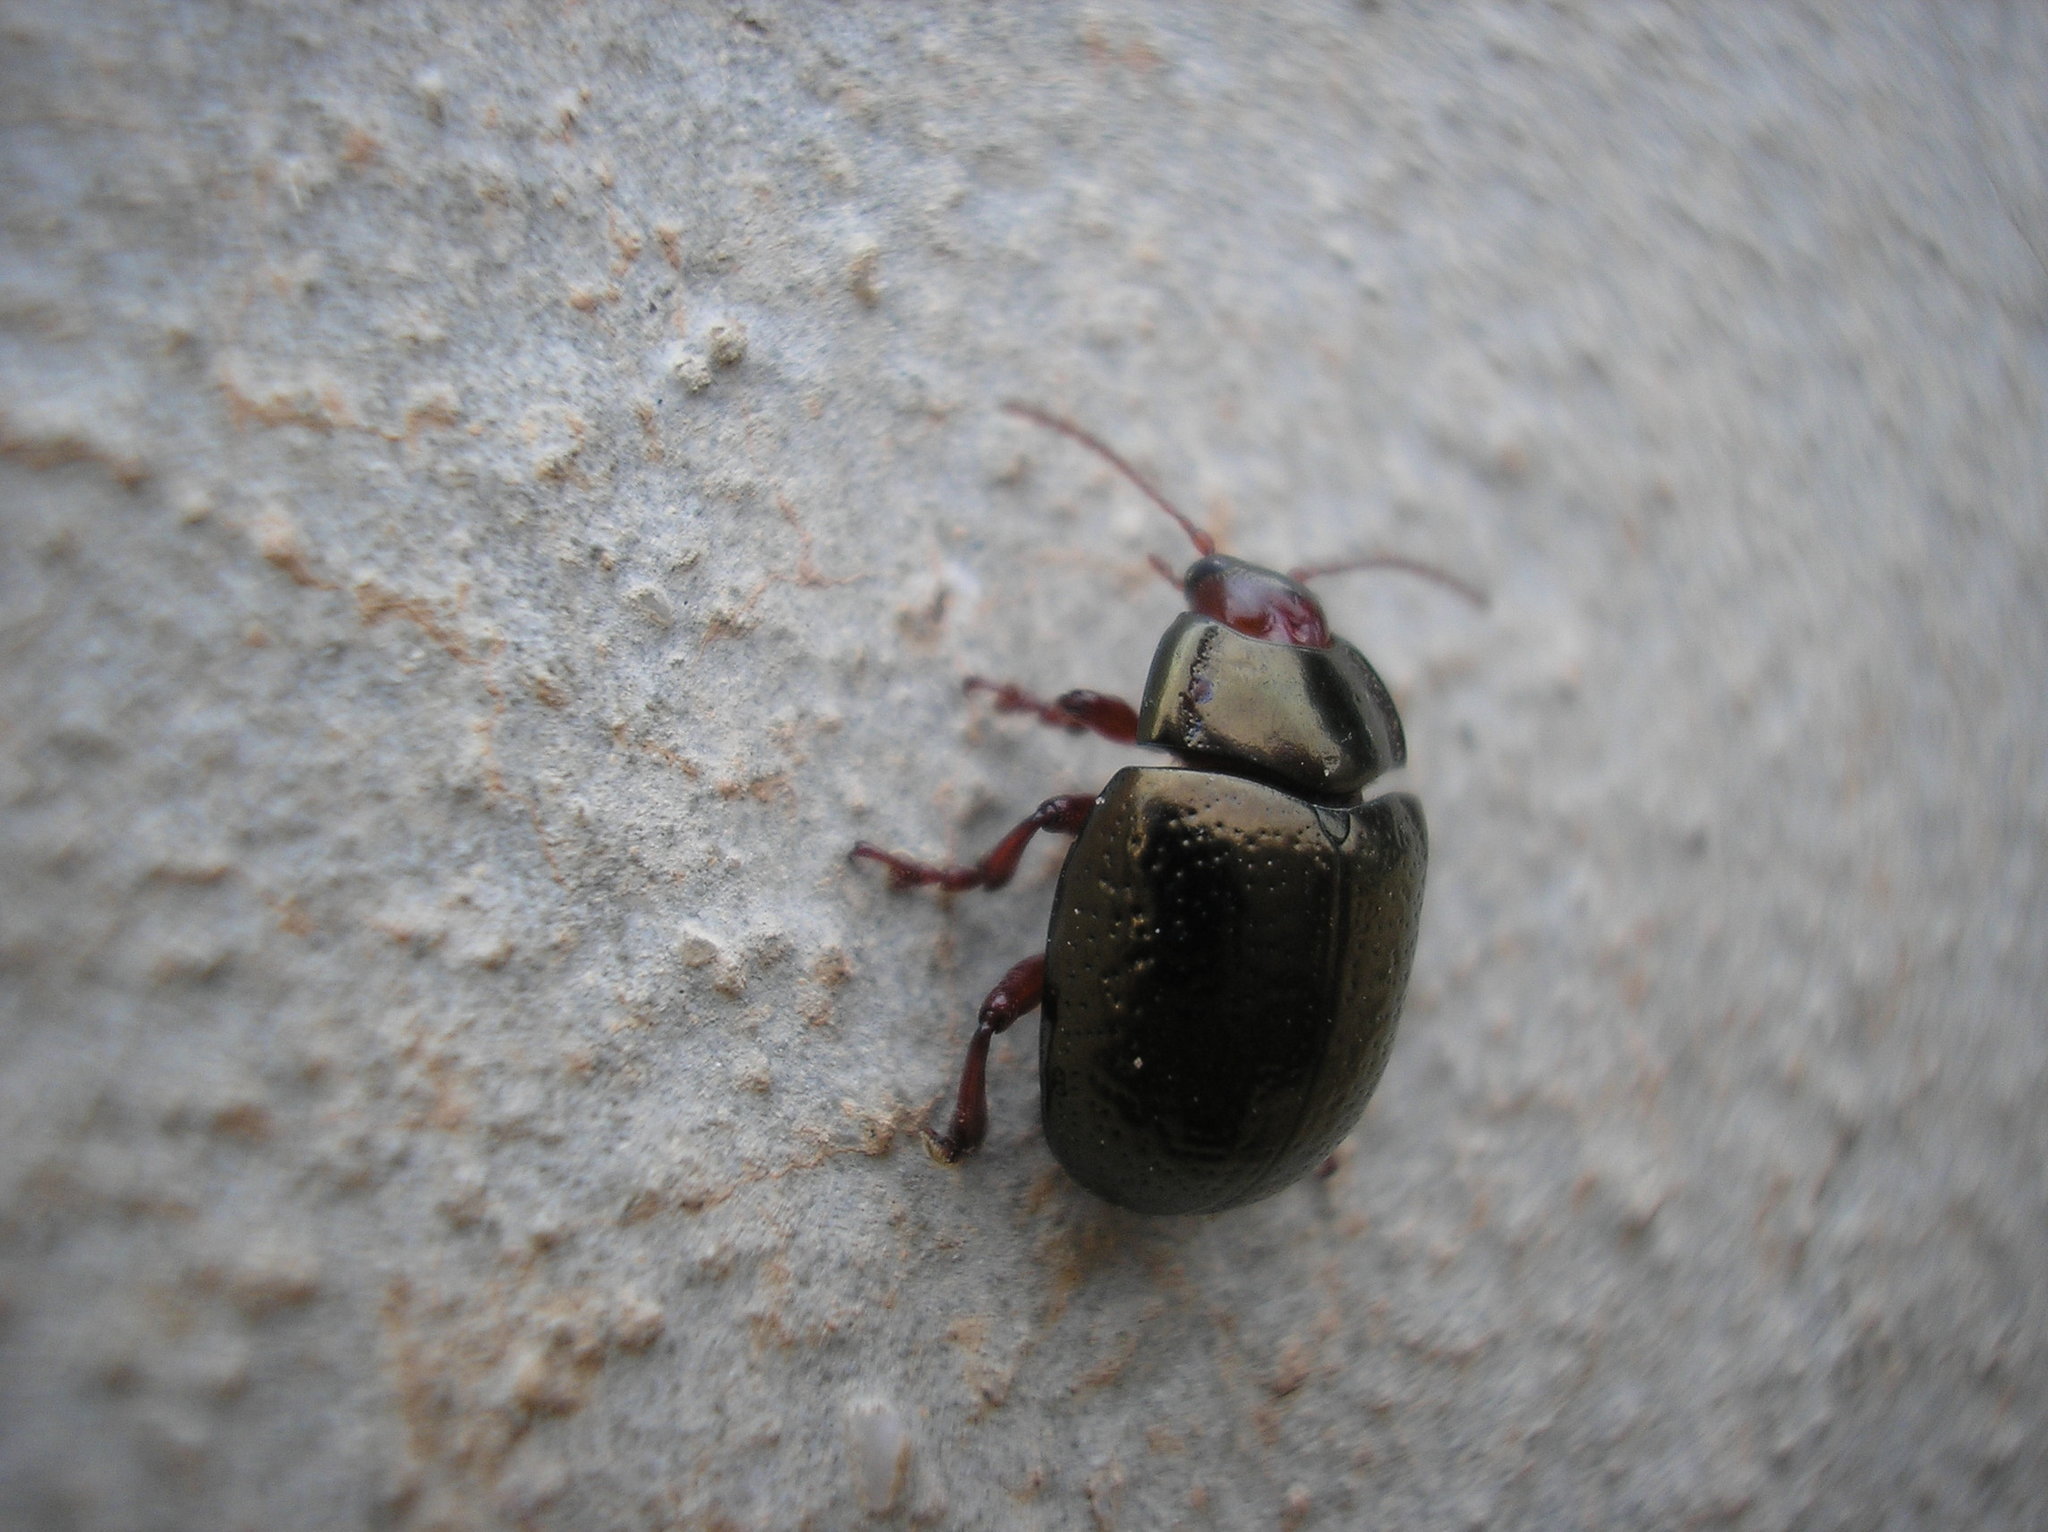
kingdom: Animalia
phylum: Arthropoda
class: Insecta
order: Coleoptera
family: Chrysomelidae
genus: Chrysolina
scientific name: Chrysolina bankii
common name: Leaf beetle
